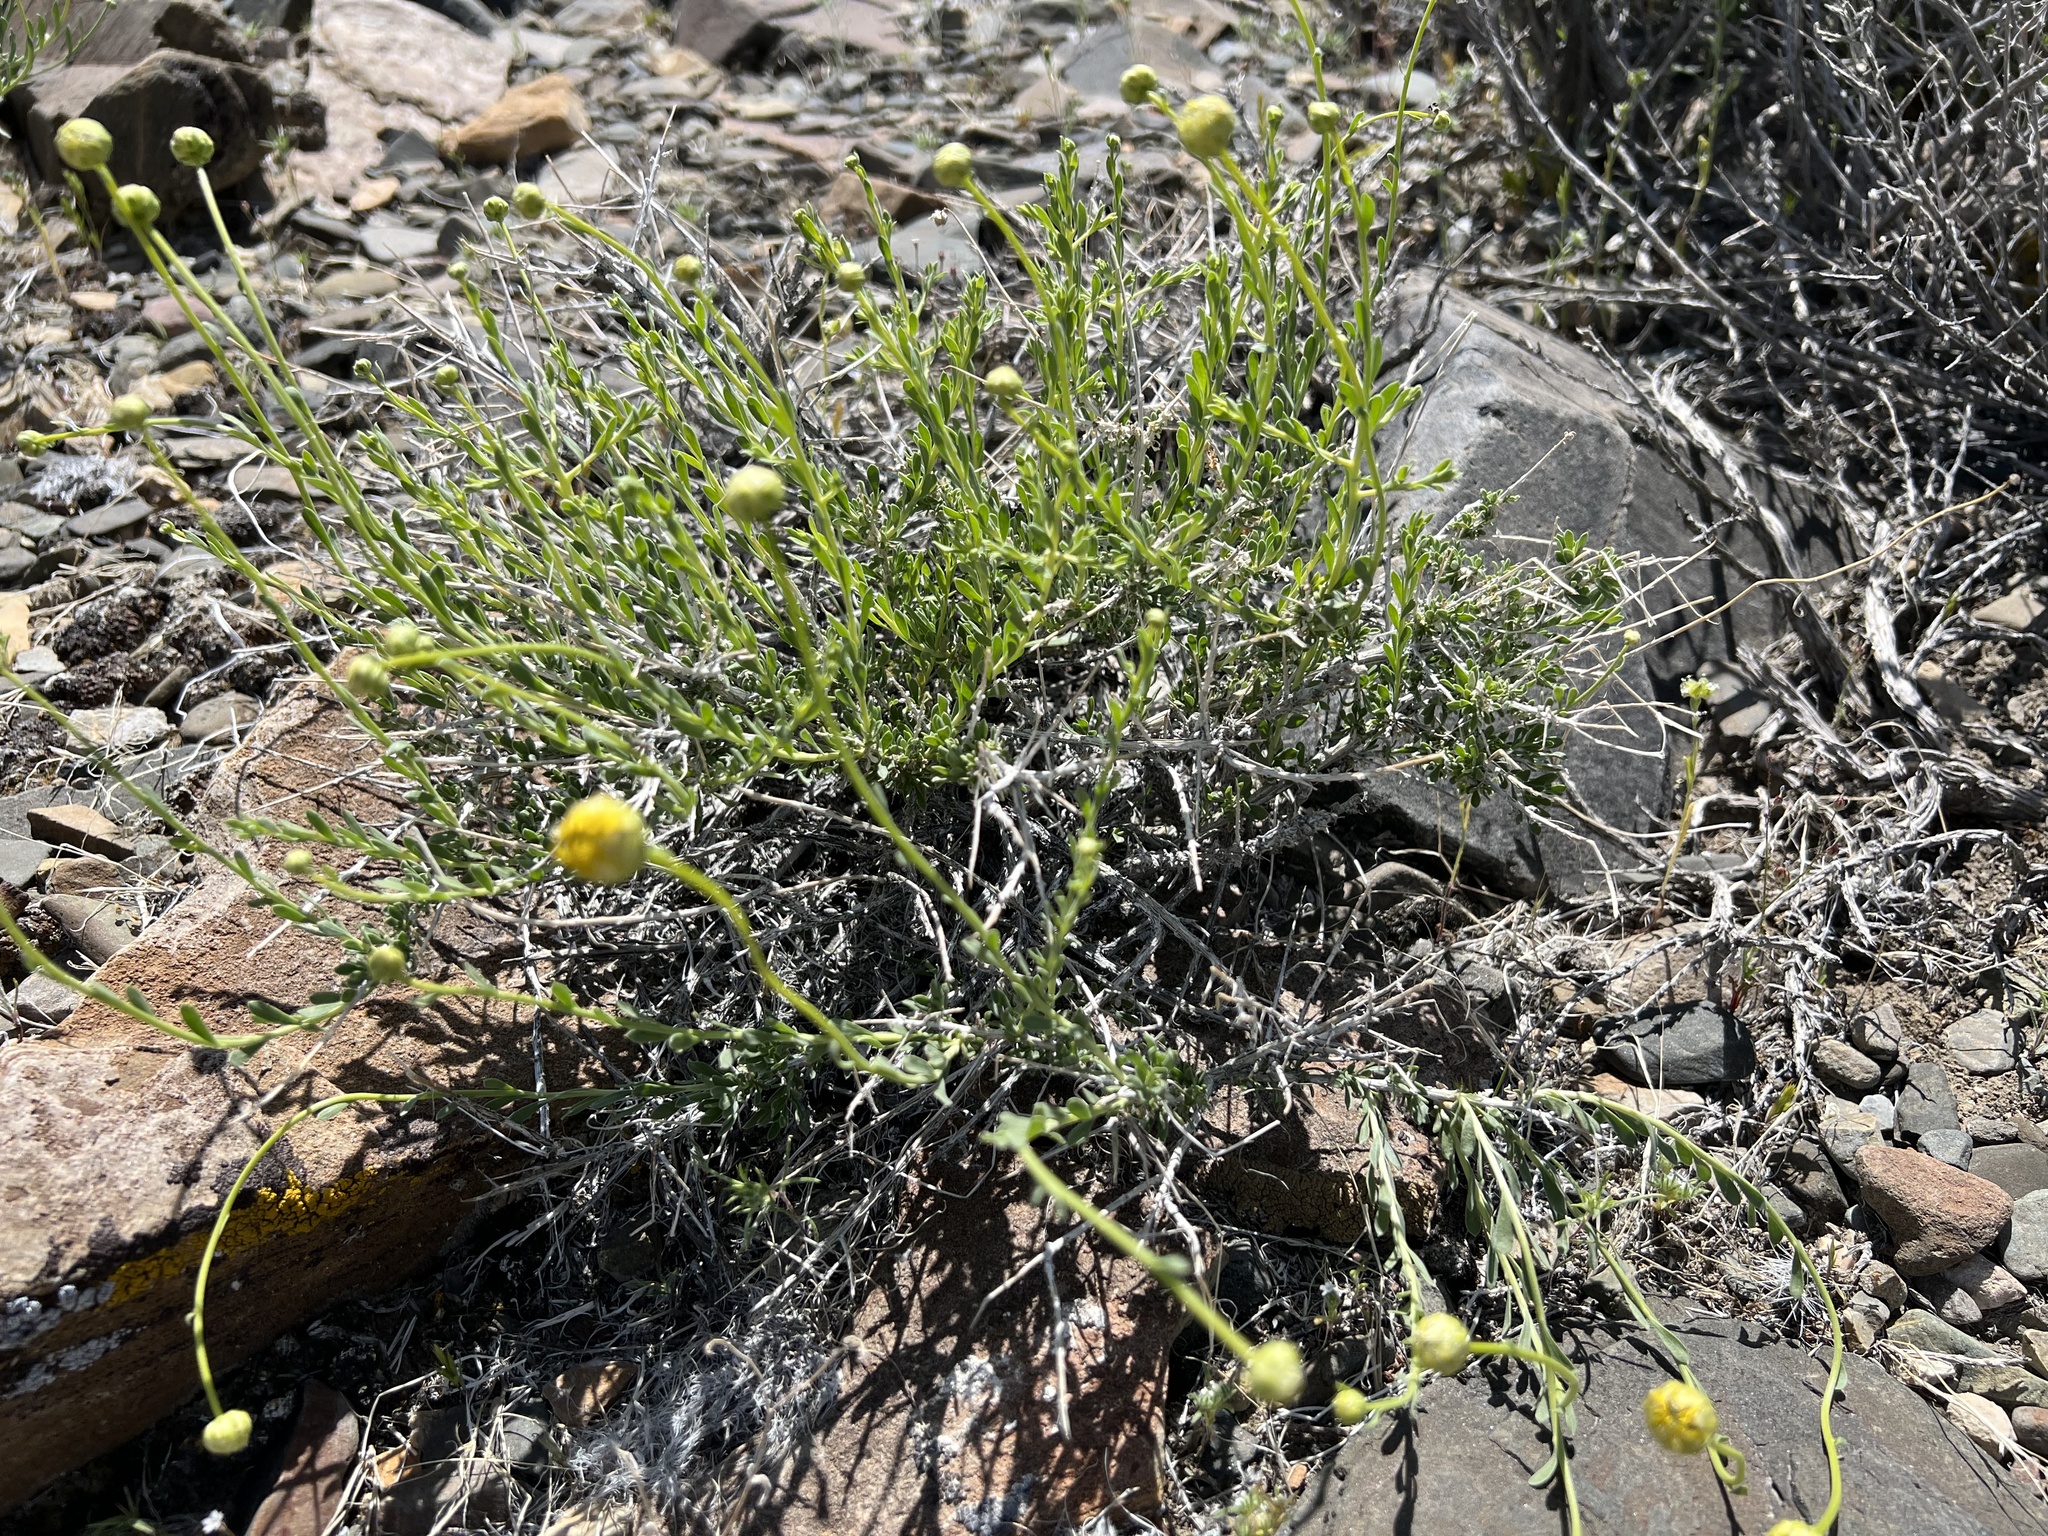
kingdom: Plantae
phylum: Tracheophyta
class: Magnoliopsida
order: Asterales
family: Asteraceae
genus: Acamptopappus
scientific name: Acamptopappus shockleyi
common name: Shockley's goldenhead
